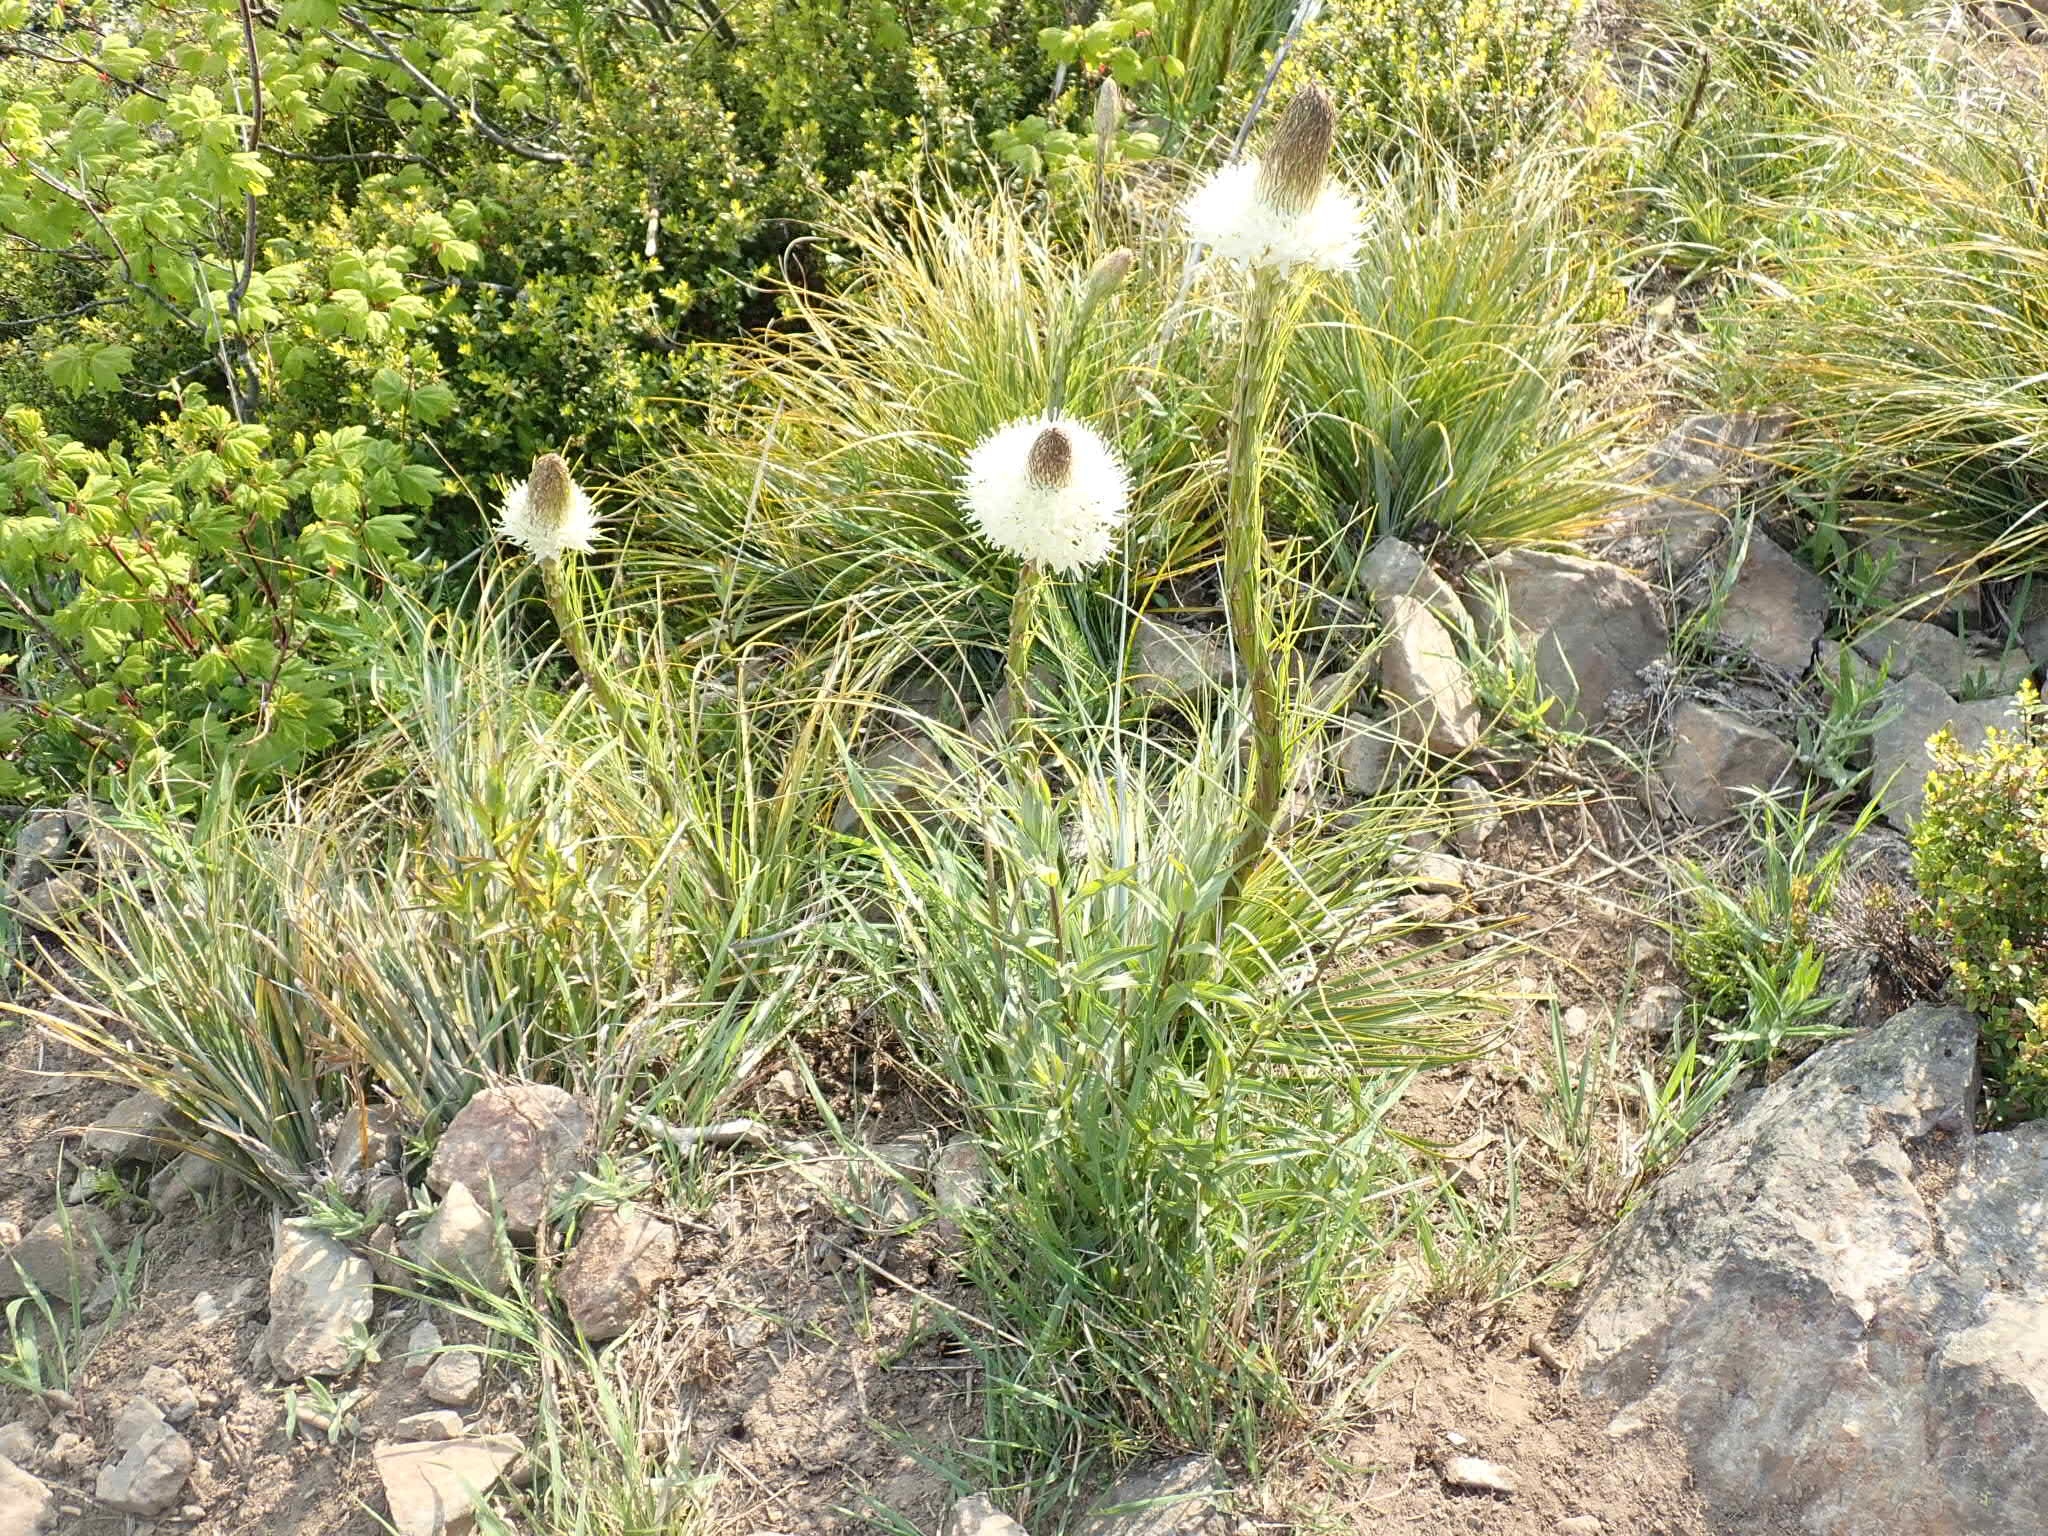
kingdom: Plantae
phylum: Tracheophyta
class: Liliopsida
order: Liliales
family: Melanthiaceae
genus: Xerophyllum
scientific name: Xerophyllum tenax
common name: Bear-grass
